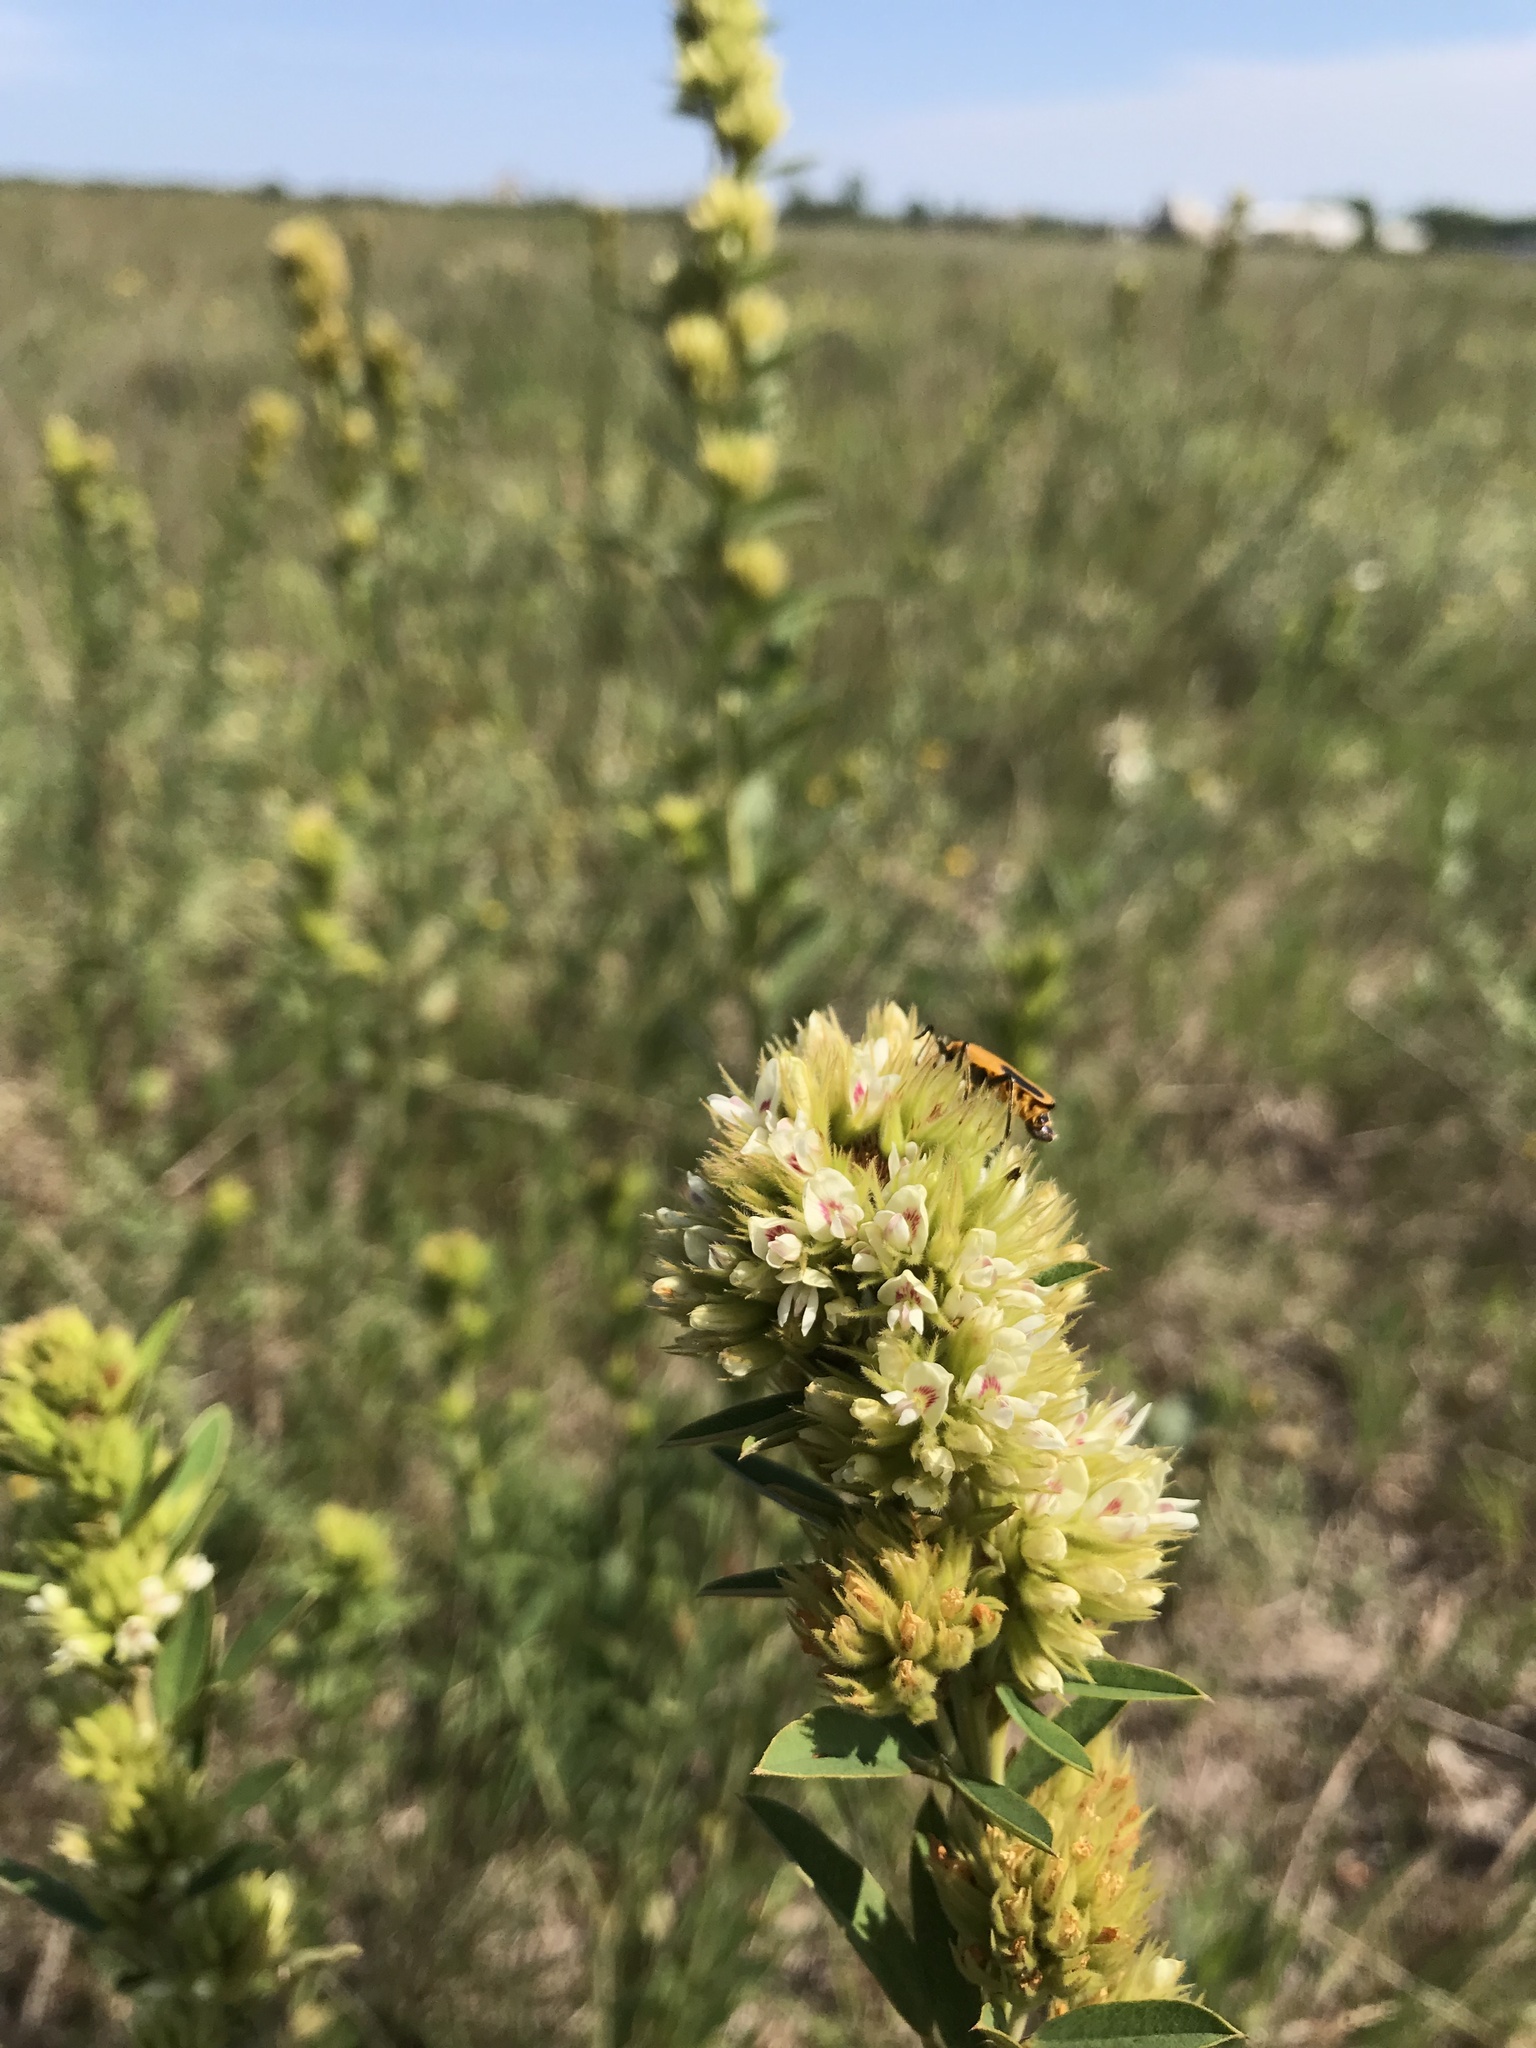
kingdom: Plantae
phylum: Tracheophyta
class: Magnoliopsida
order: Fabales
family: Fabaceae
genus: Lespedeza
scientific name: Lespedeza capitata
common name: Dusty clover
